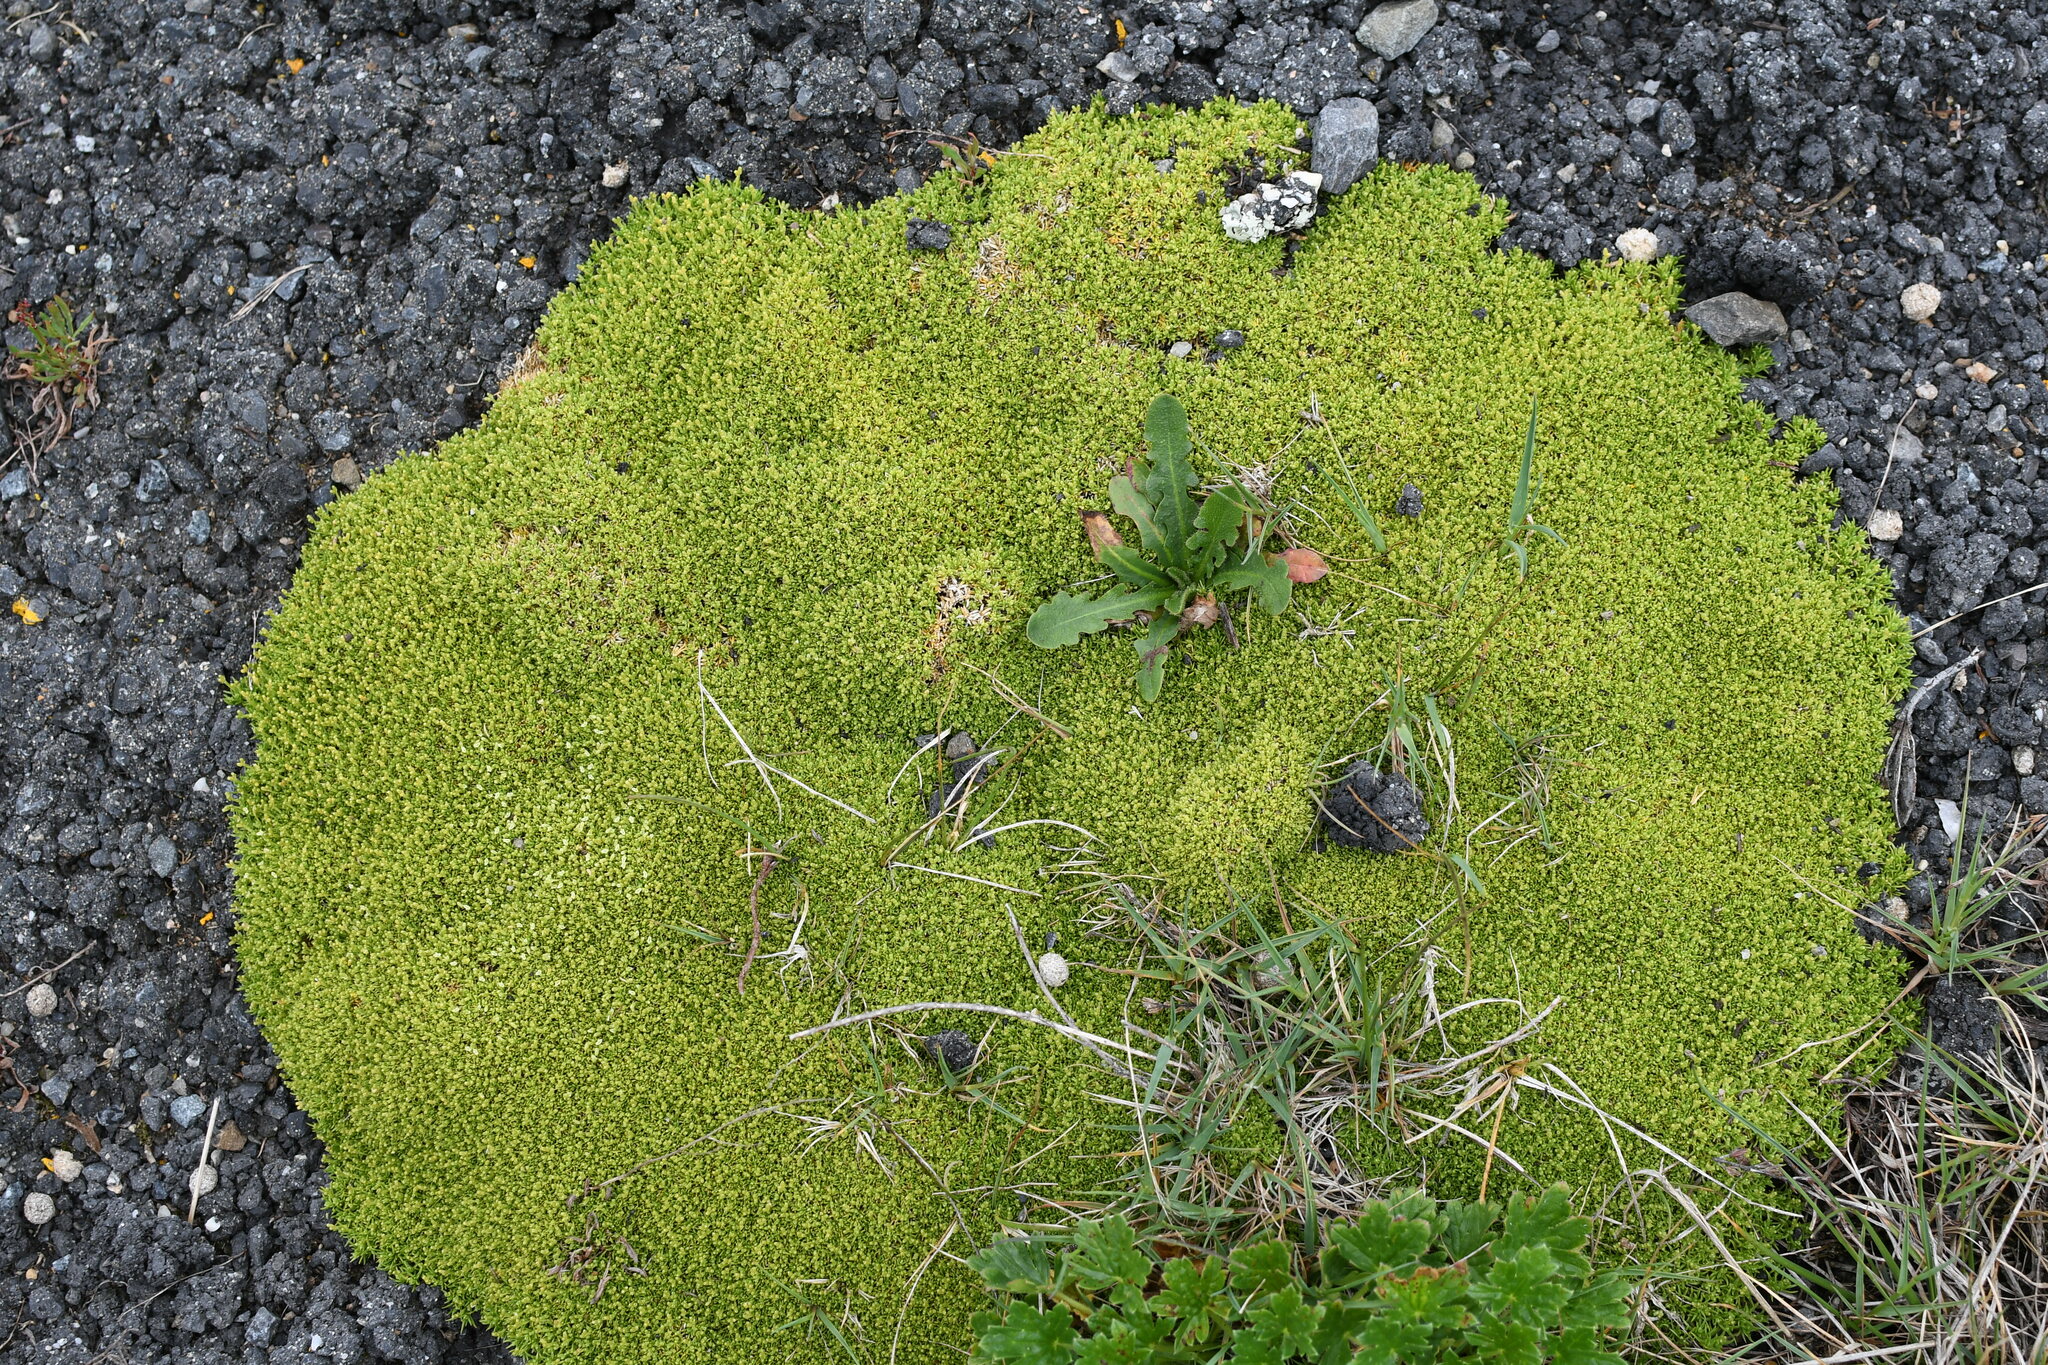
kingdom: Plantae
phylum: Tracheophyta
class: Magnoliopsida
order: Caryophyllales
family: Caryophyllaceae
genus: Scleranthus
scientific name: Scleranthus biflorus
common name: Two-flower knawel
